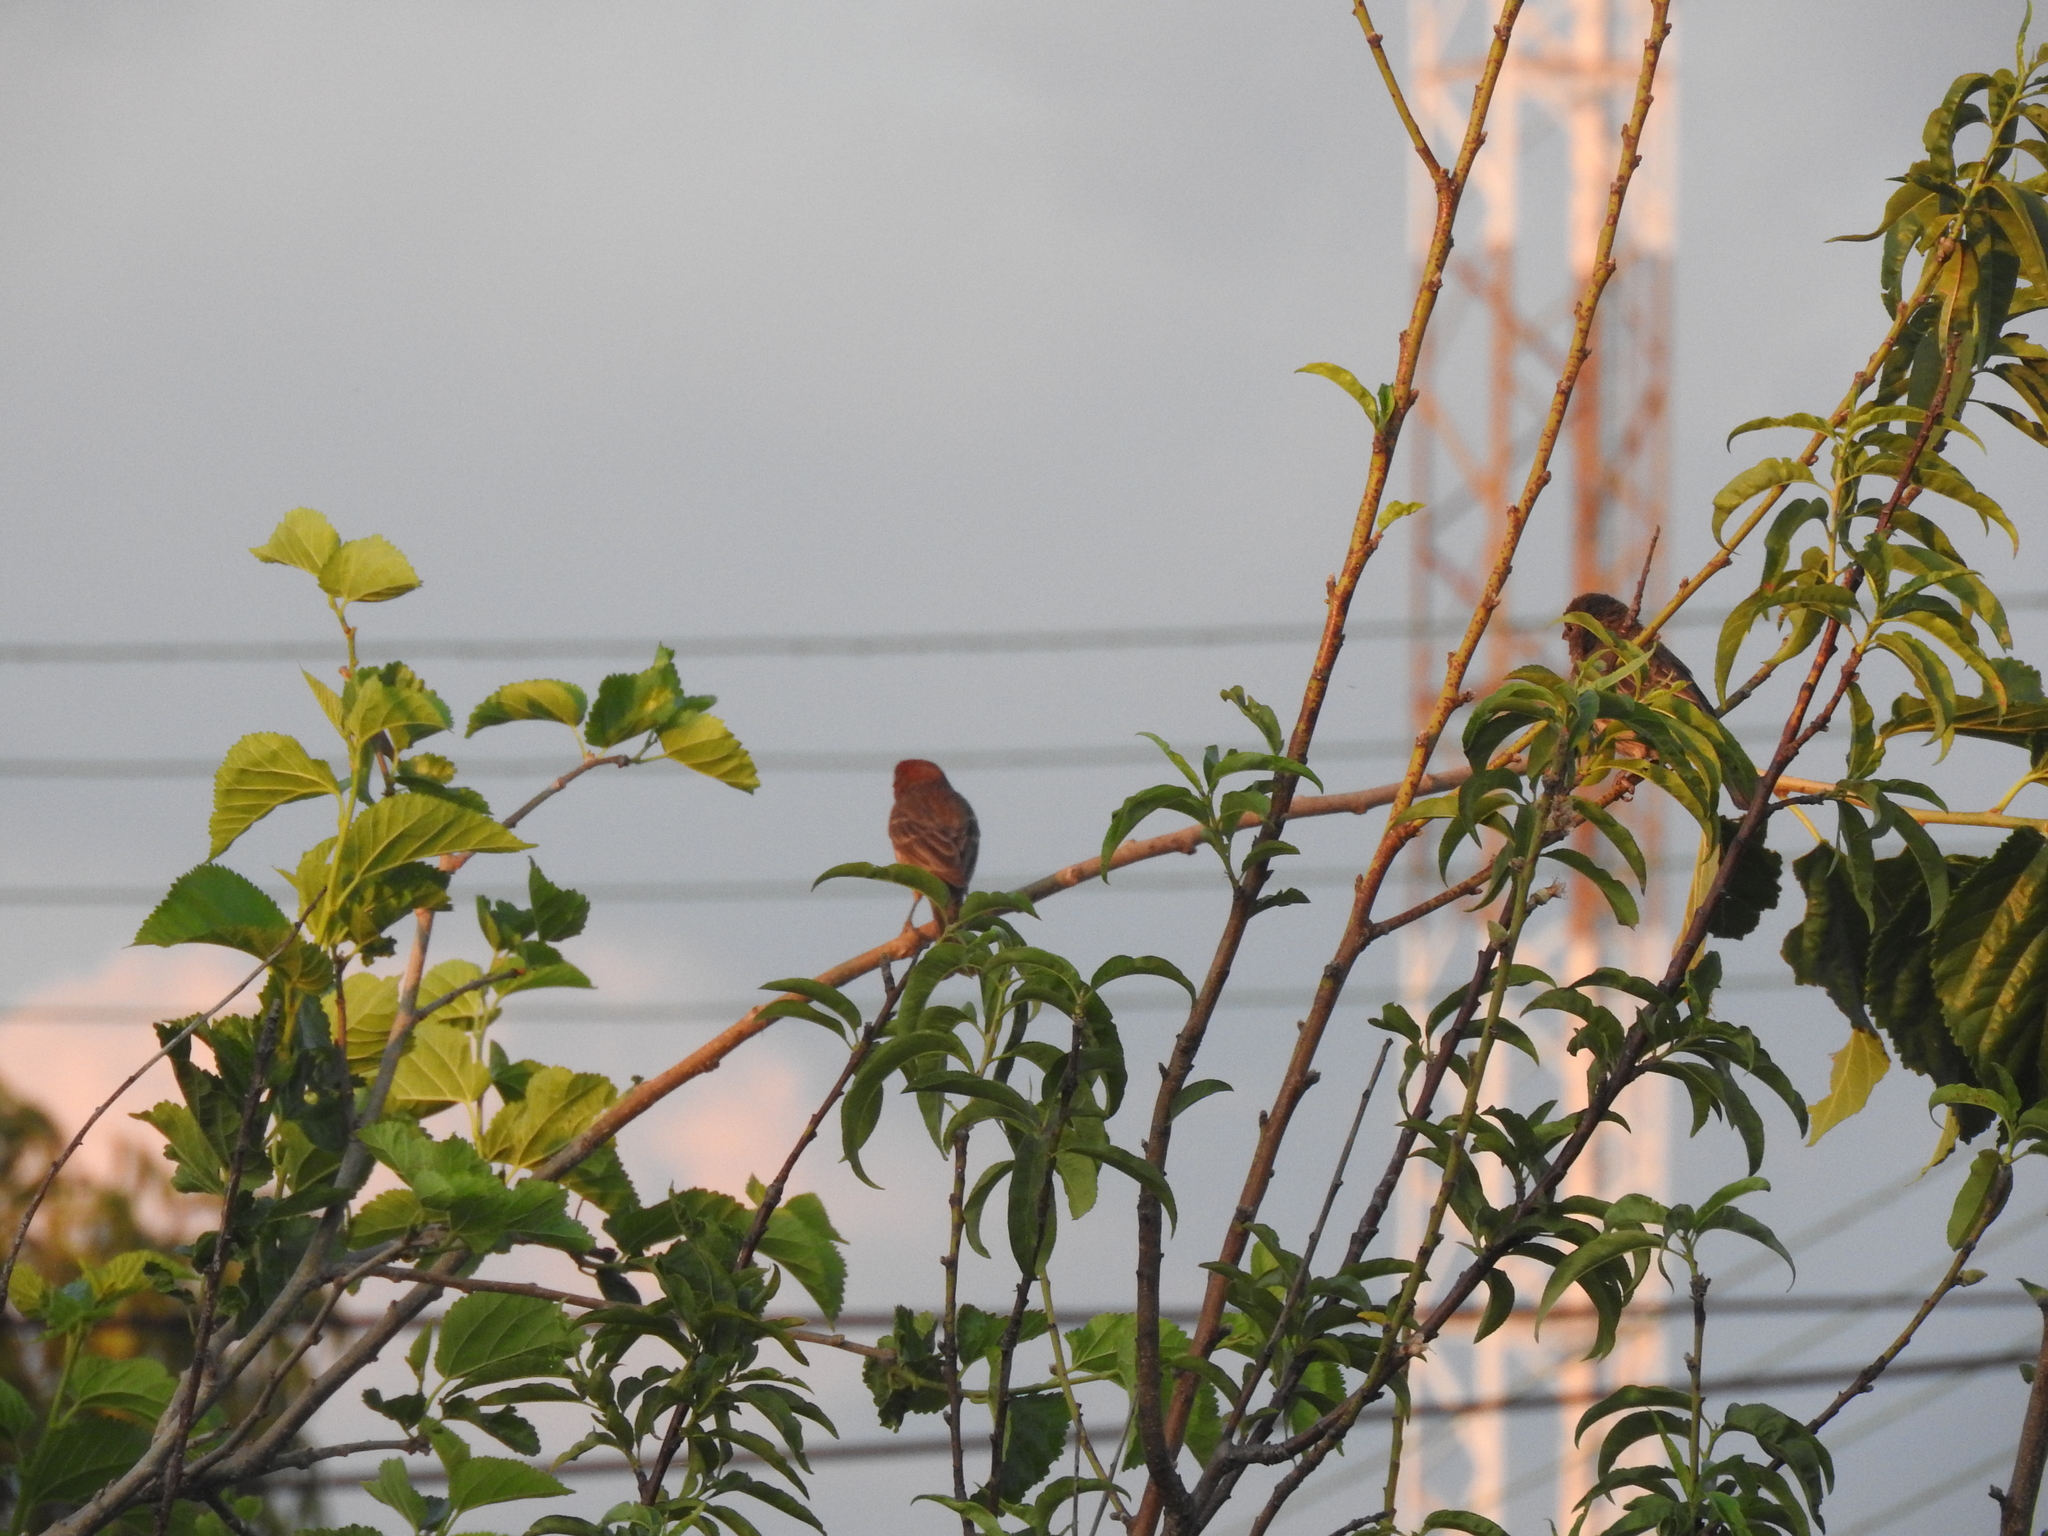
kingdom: Animalia
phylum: Chordata
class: Aves
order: Passeriformes
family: Fringillidae
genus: Haemorhous
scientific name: Haemorhous mexicanus
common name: House finch
